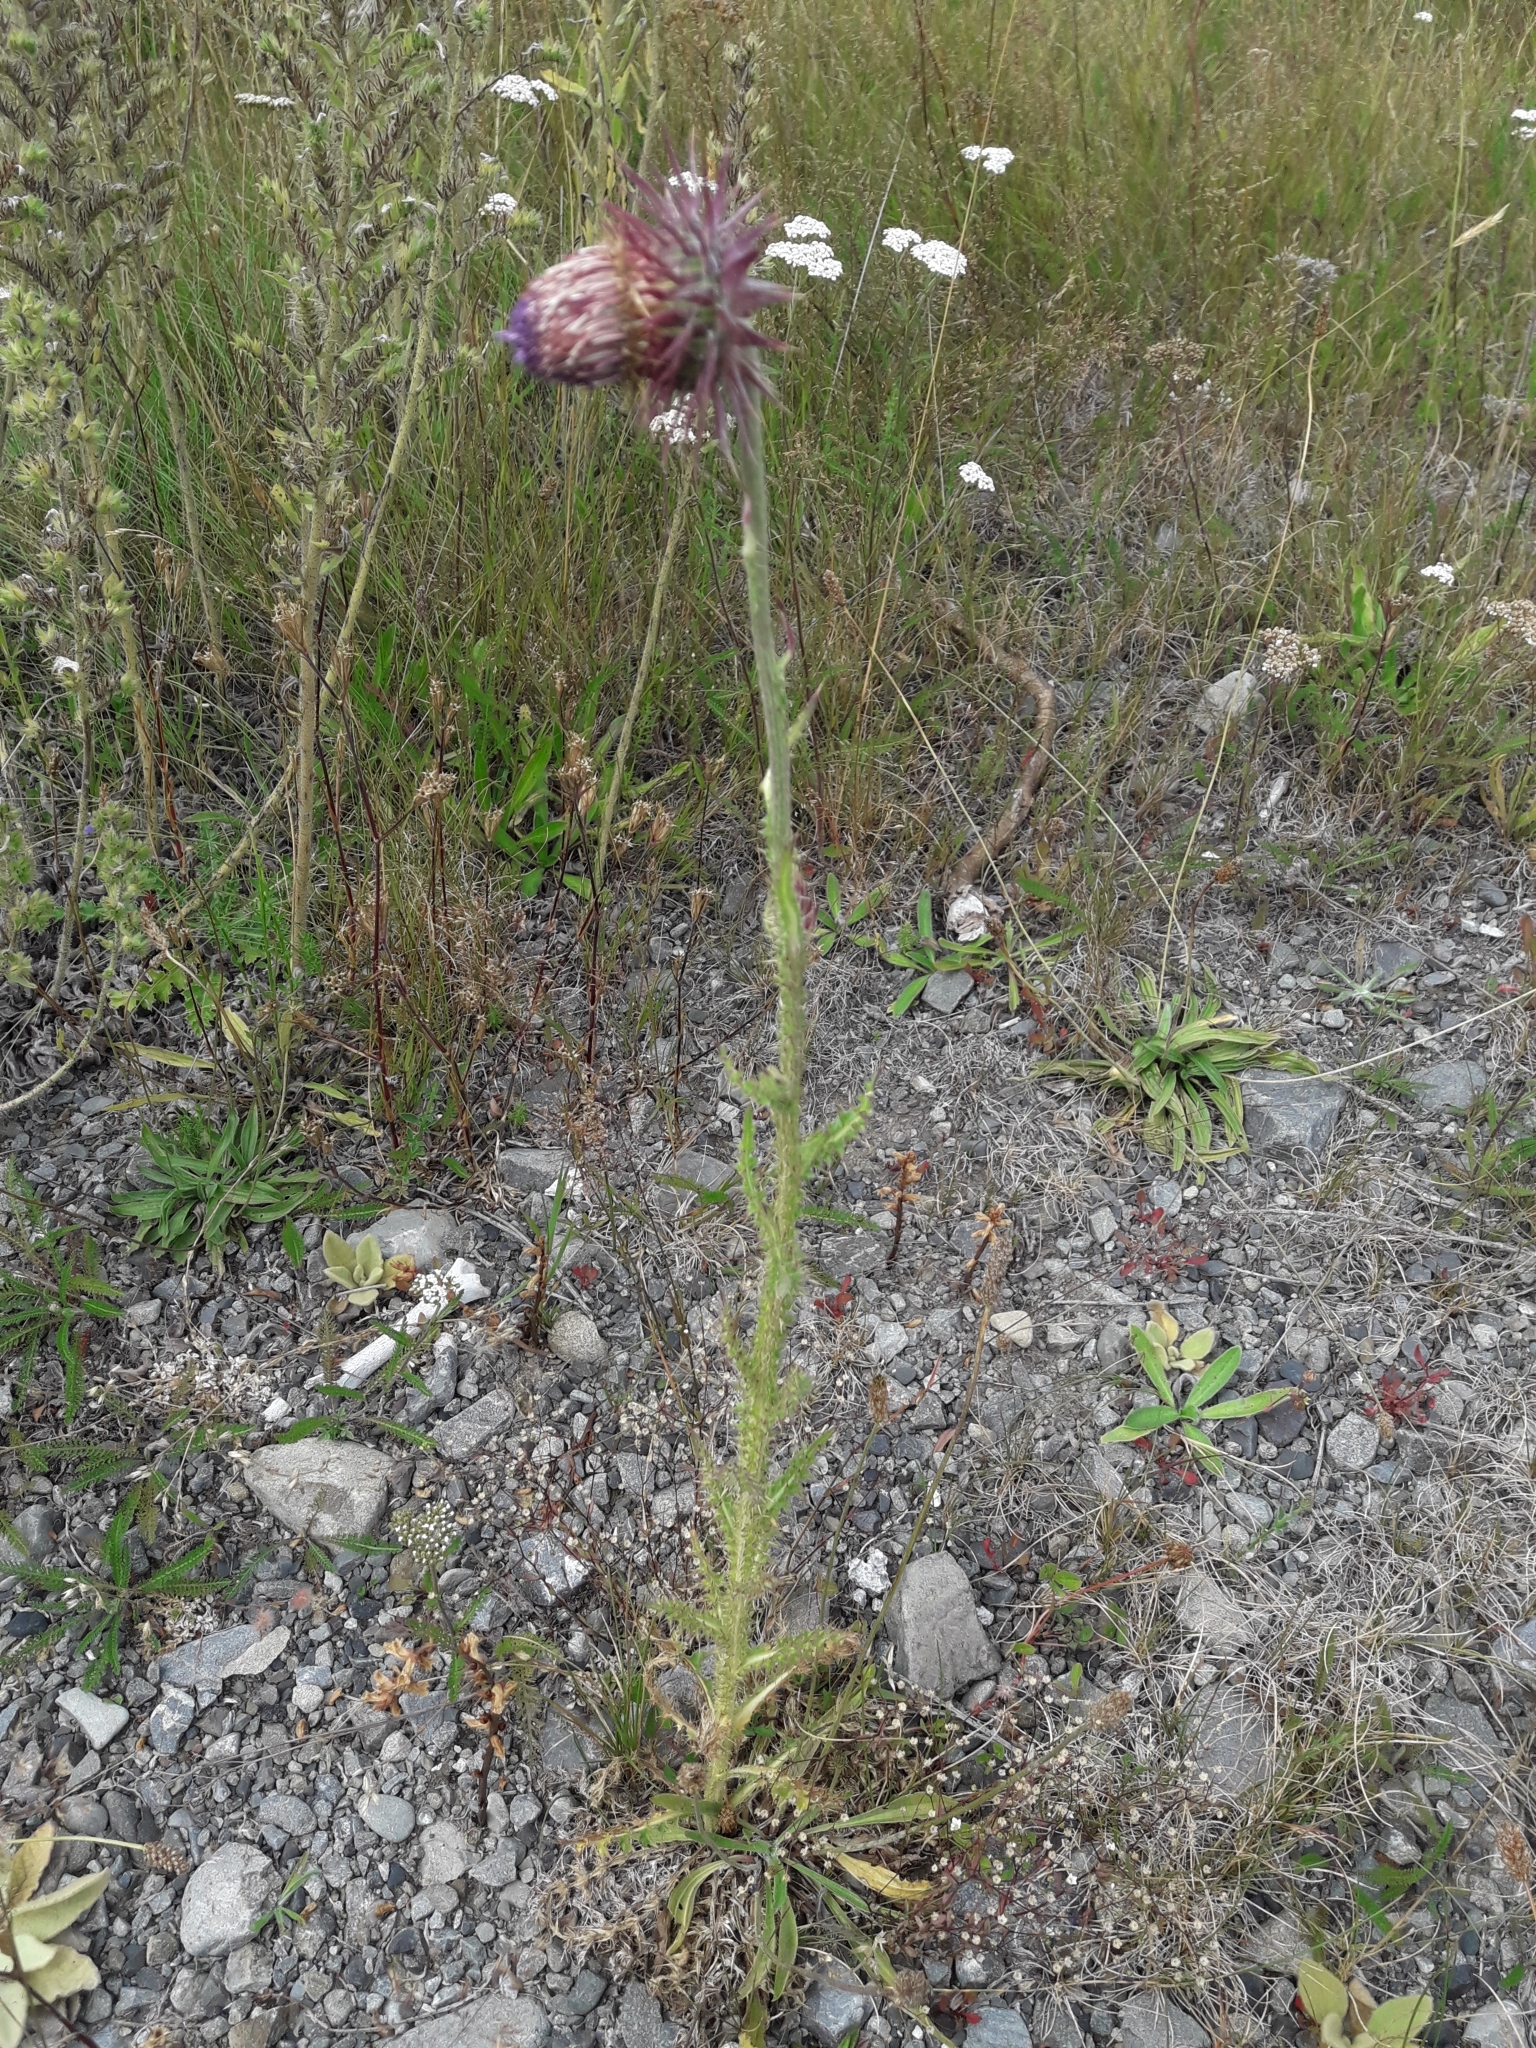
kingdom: Plantae
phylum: Tracheophyta
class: Magnoliopsida
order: Asterales
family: Asteraceae
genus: Carduus
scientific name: Carduus nutans
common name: Musk thistle
